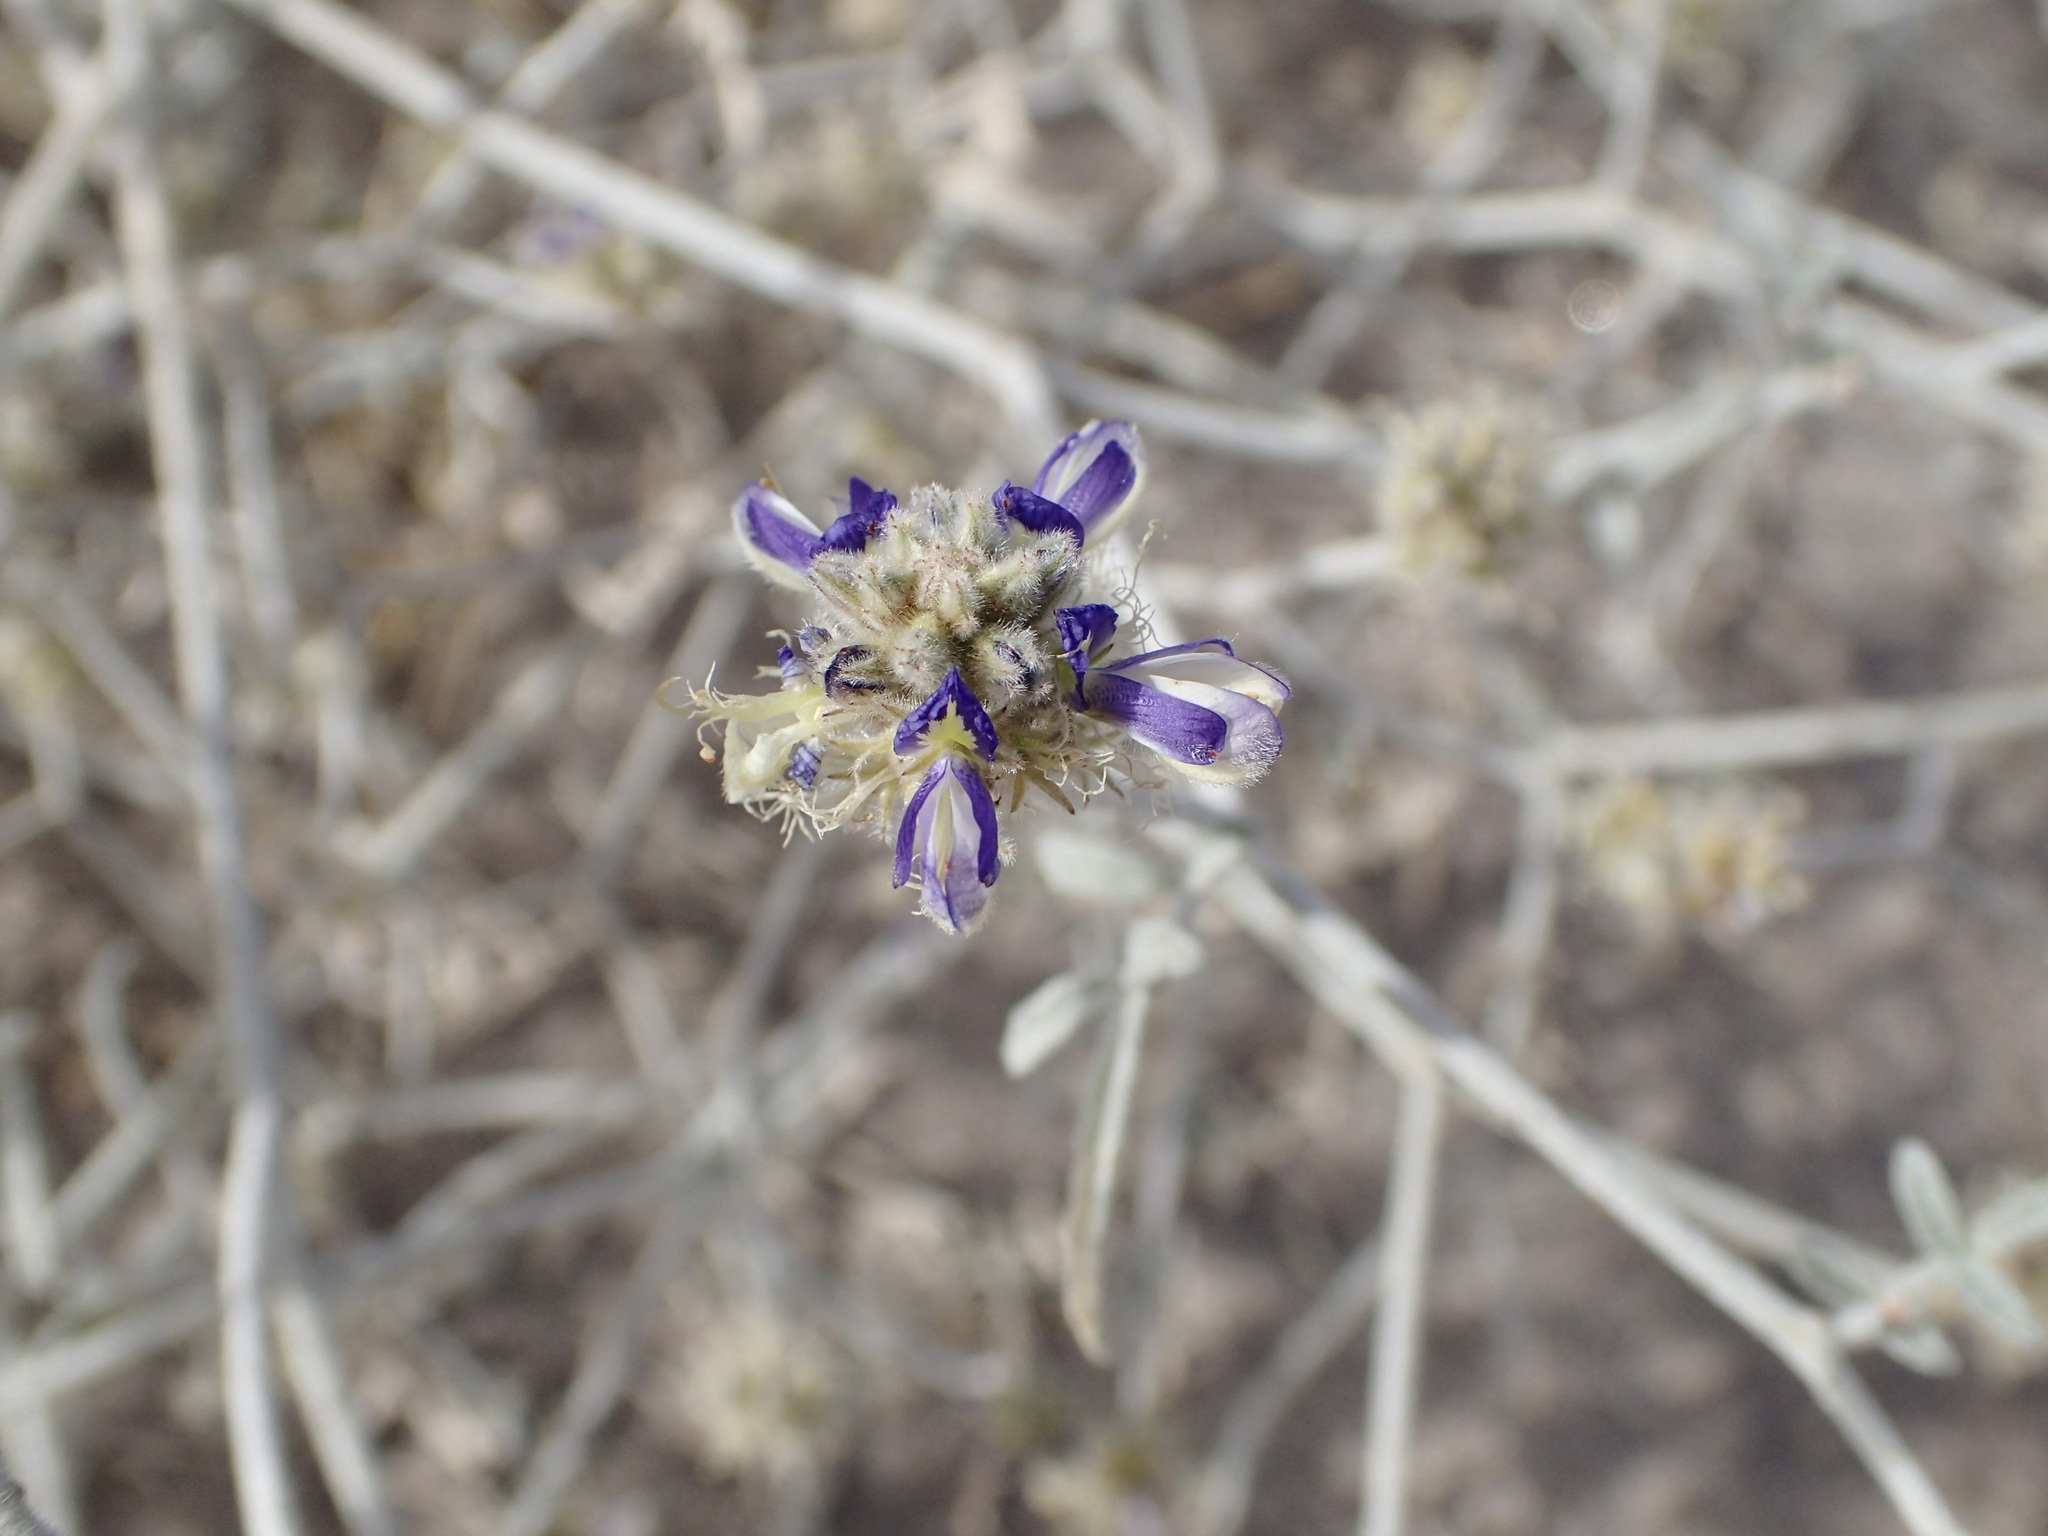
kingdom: Plantae
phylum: Tracheophyta
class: Magnoliopsida
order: Fabales
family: Fabaceae
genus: Psorothamnus
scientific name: Psorothamnus emoryi
